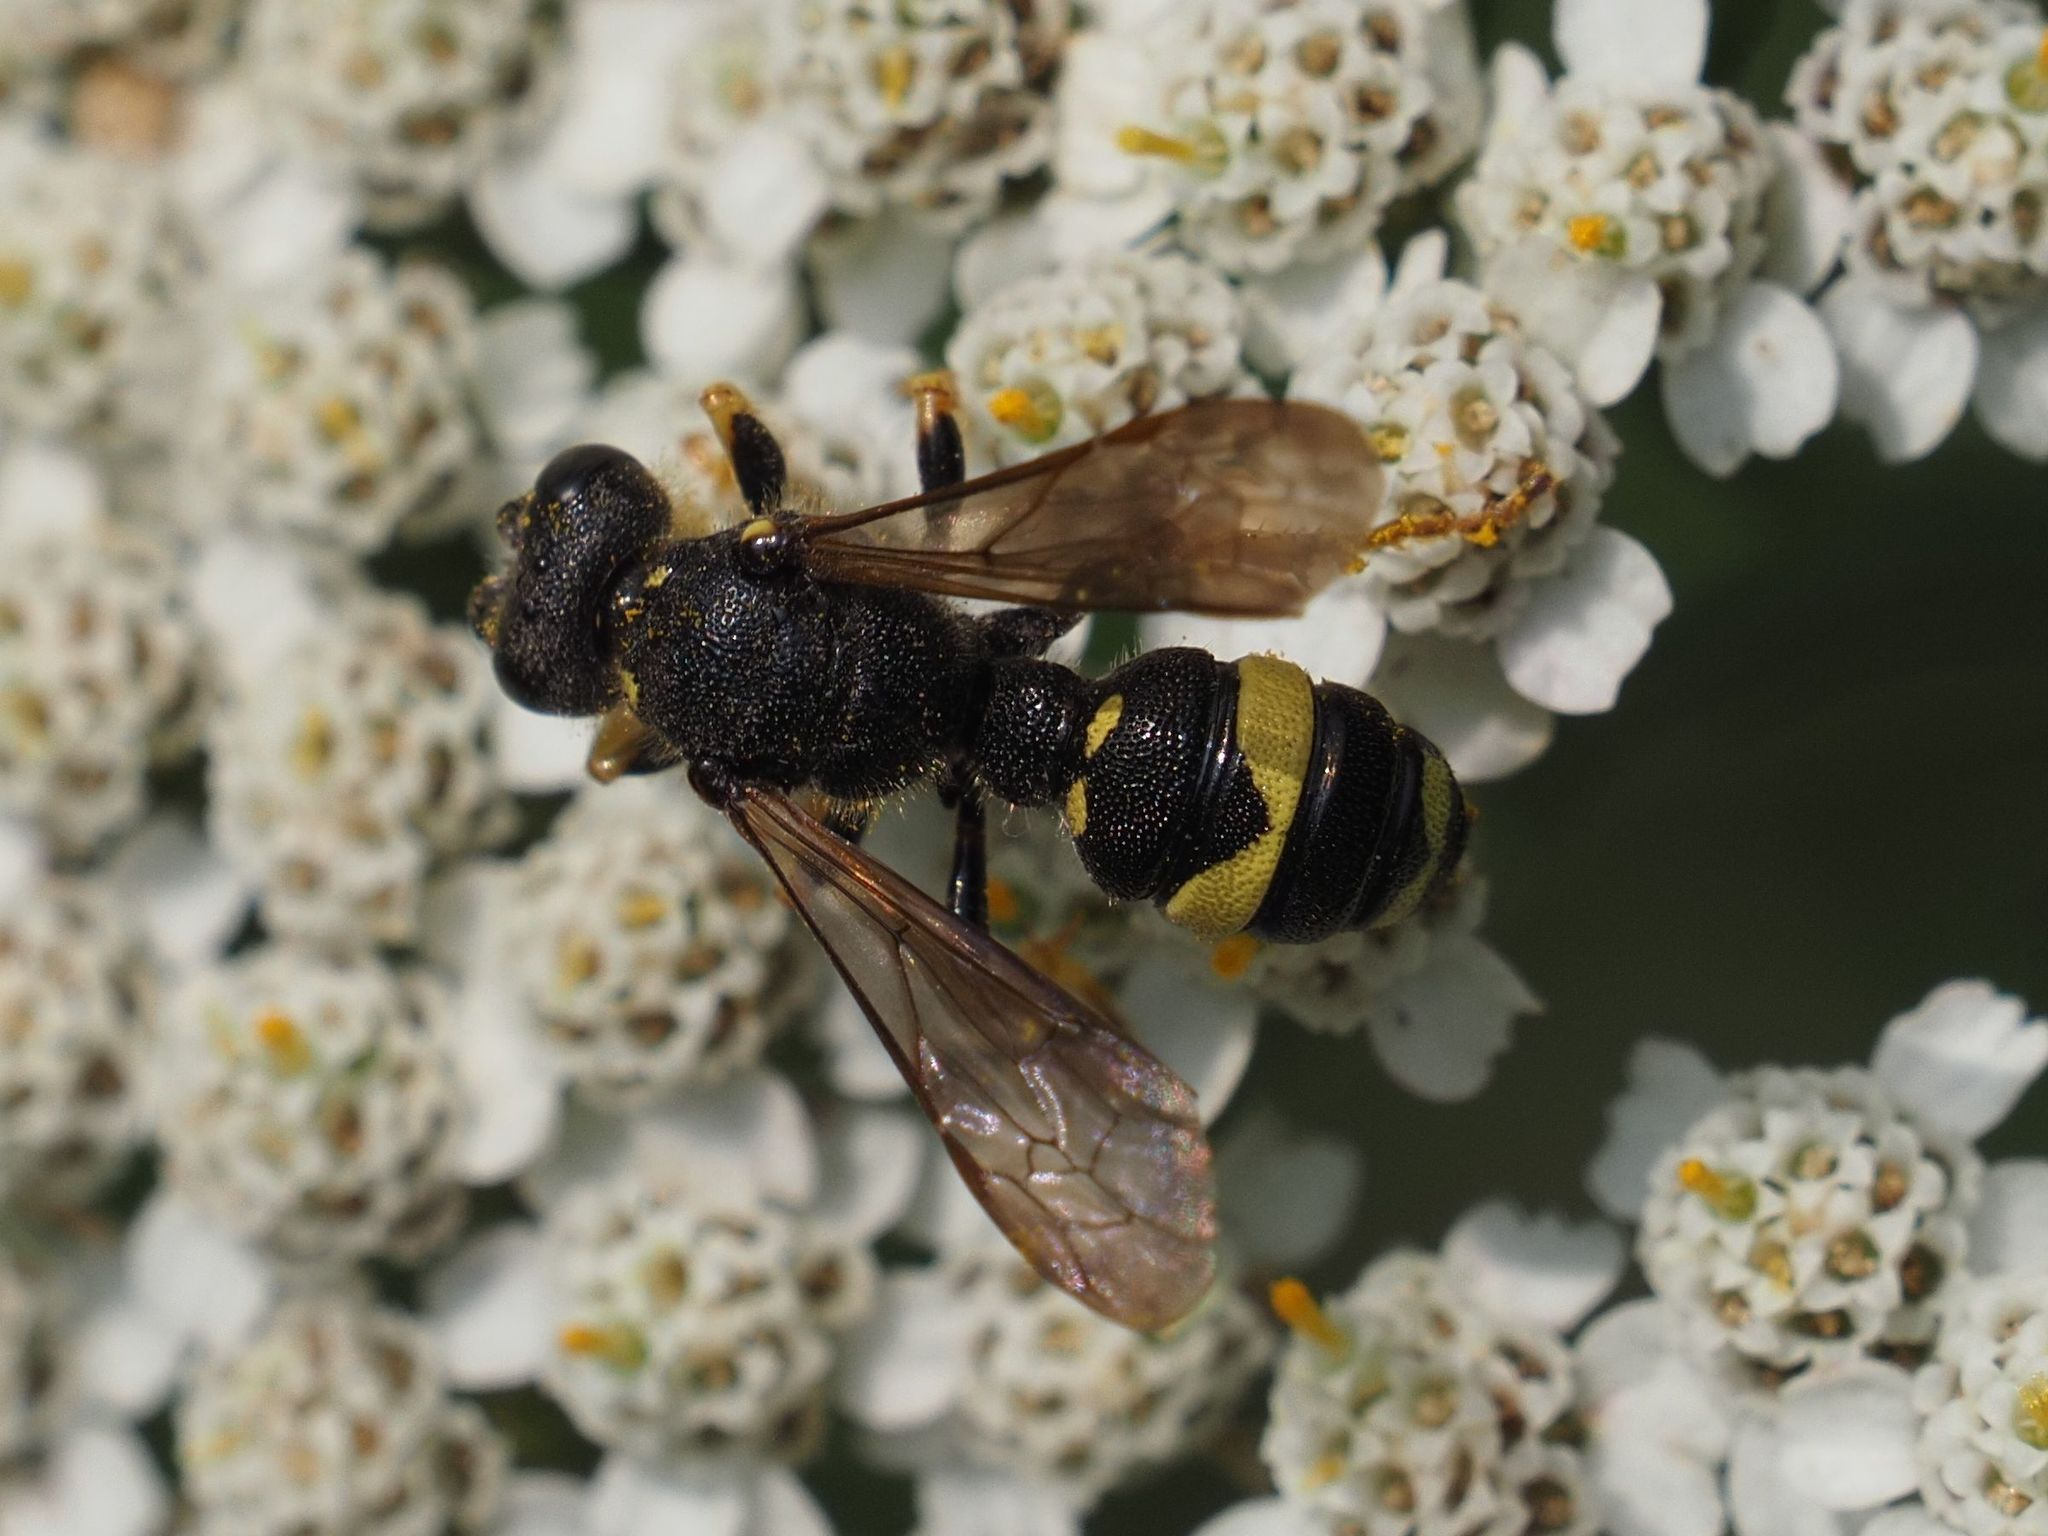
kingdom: Animalia
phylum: Arthropoda
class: Insecta
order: Hymenoptera
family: Crabronidae
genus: Cerceris
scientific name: Cerceris rybyensis
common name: Ornate tailed digger wasp
